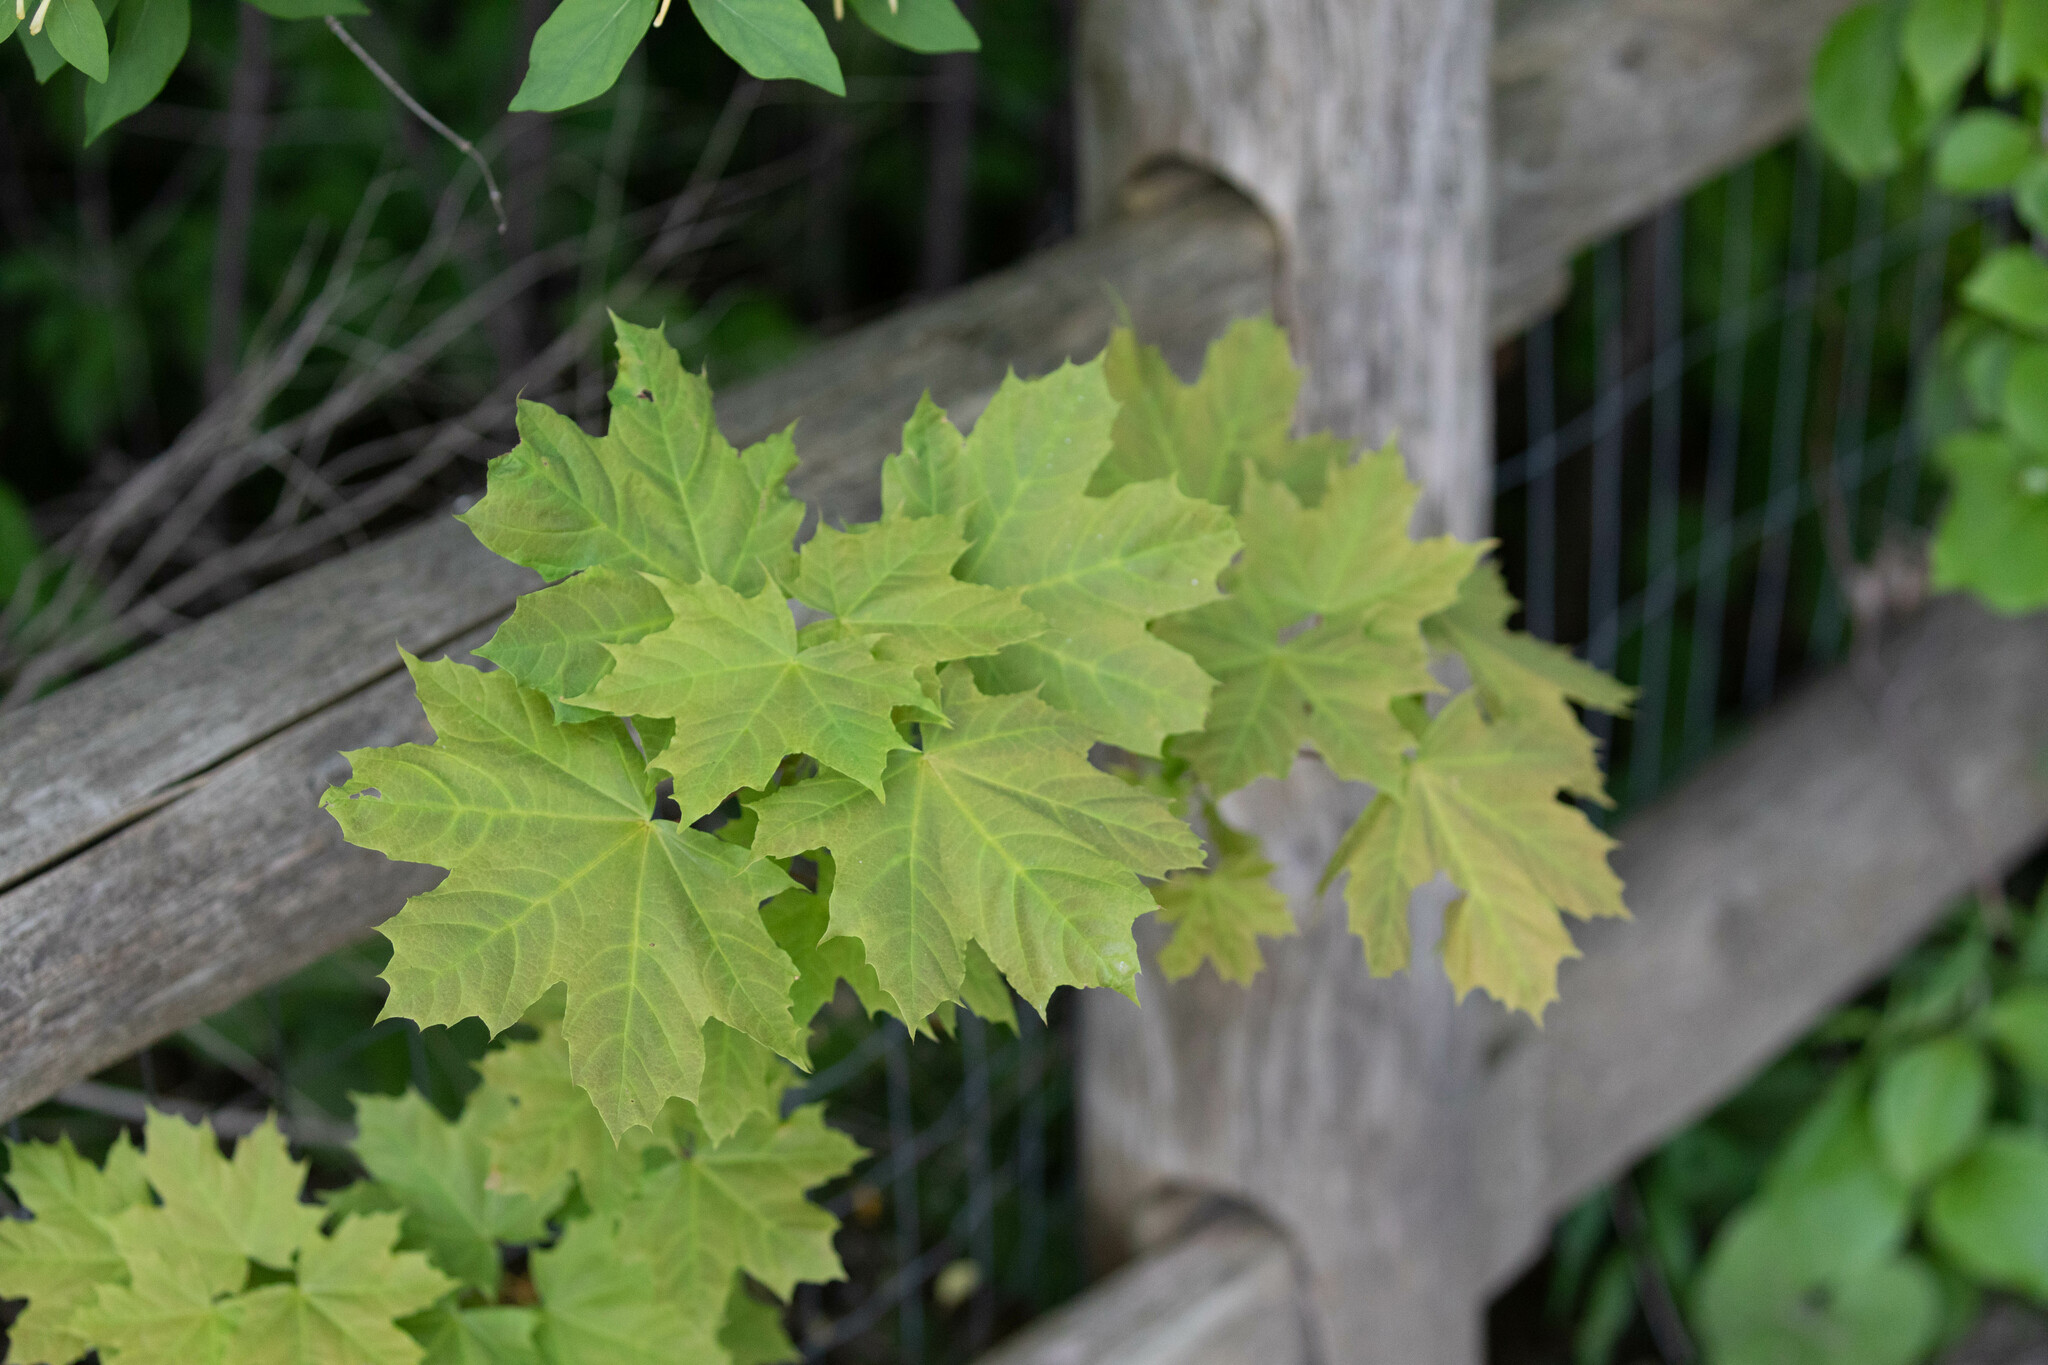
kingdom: Plantae
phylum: Tracheophyta
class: Magnoliopsida
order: Sapindales
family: Sapindaceae
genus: Acer
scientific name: Acer platanoides
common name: Norway maple
